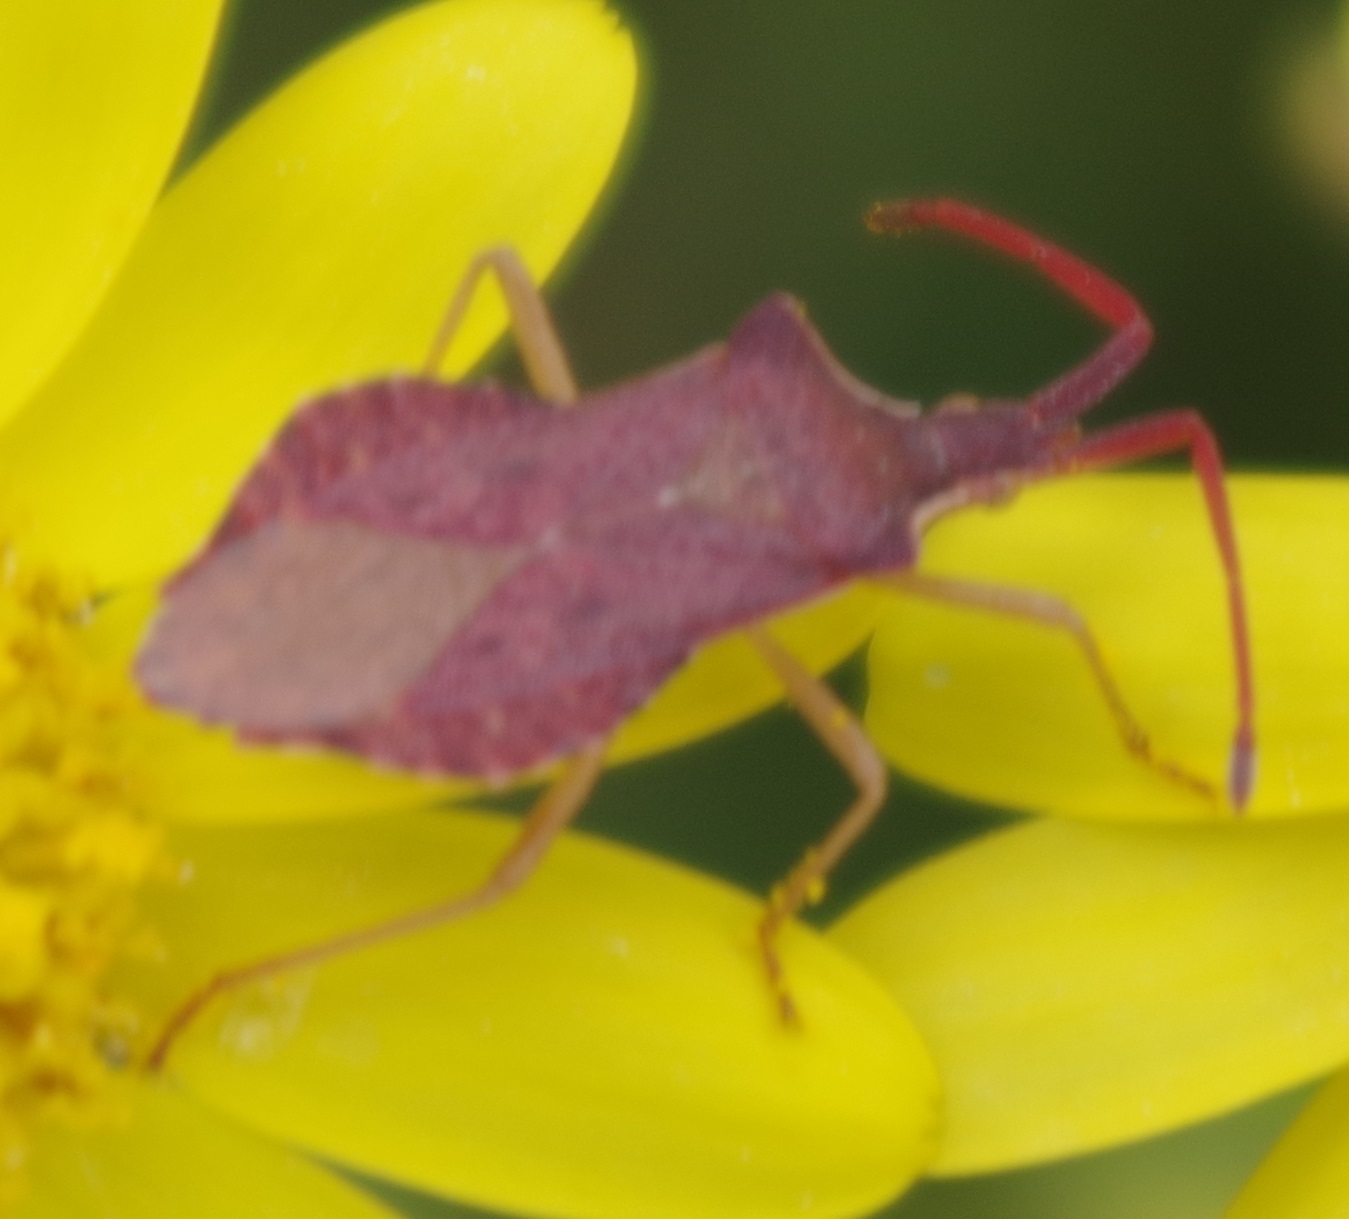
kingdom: Animalia
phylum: Arthropoda
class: Insecta
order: Hemiptera
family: Coreidae
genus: Haploprocta
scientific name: Haploprocta sulcicornis
